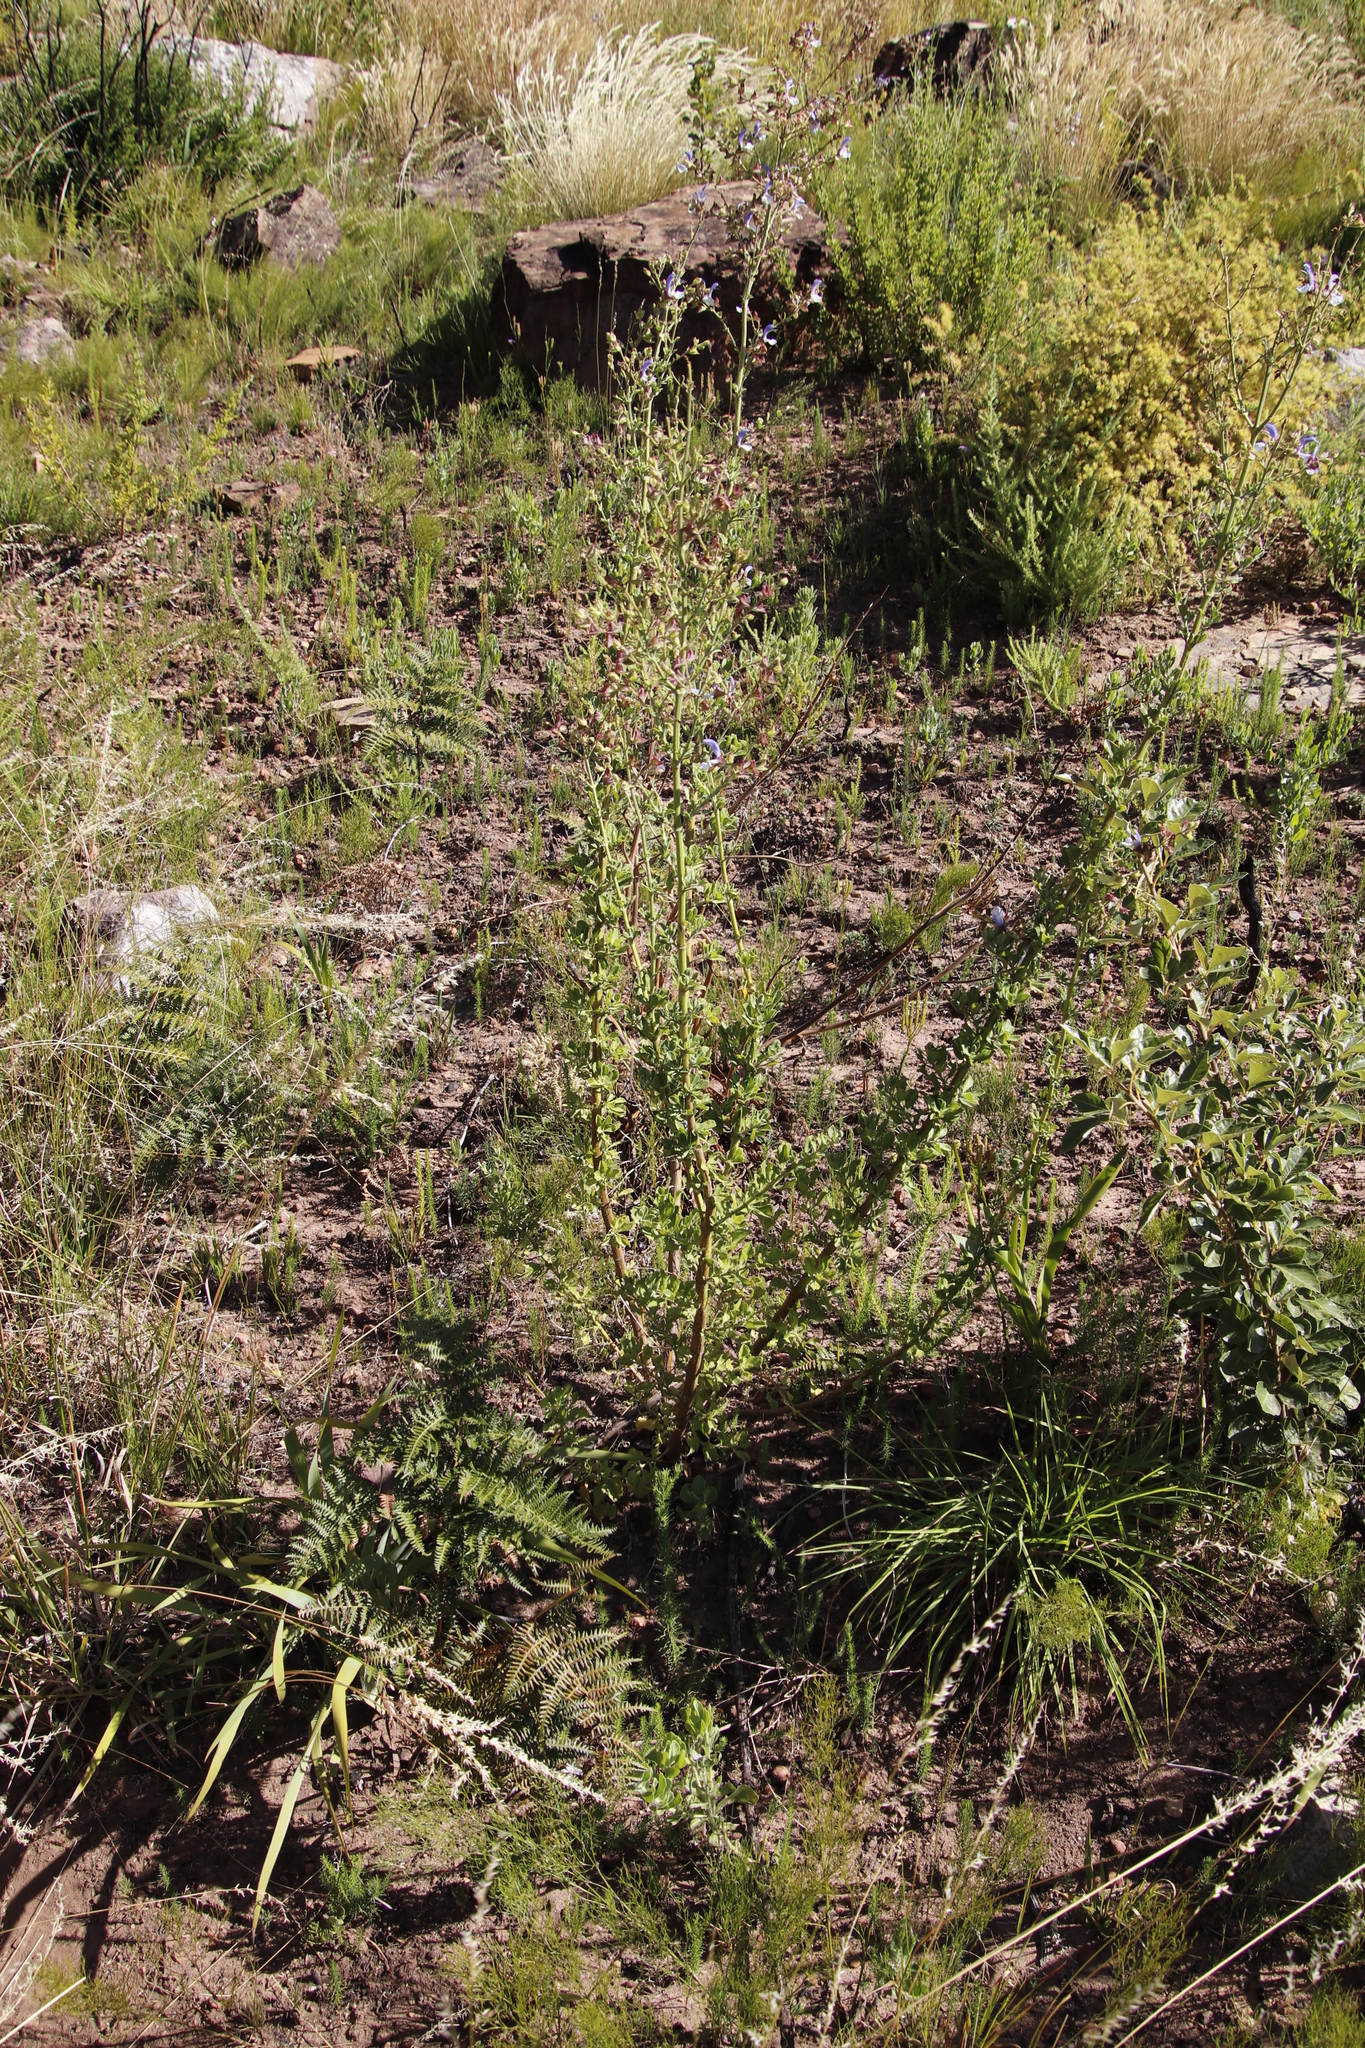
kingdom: Plantae
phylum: Tracheophyta
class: Magnoliopsida
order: Lamiales
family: Lamiaceae
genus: Salvia
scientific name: Salvia chamelaeagnea
